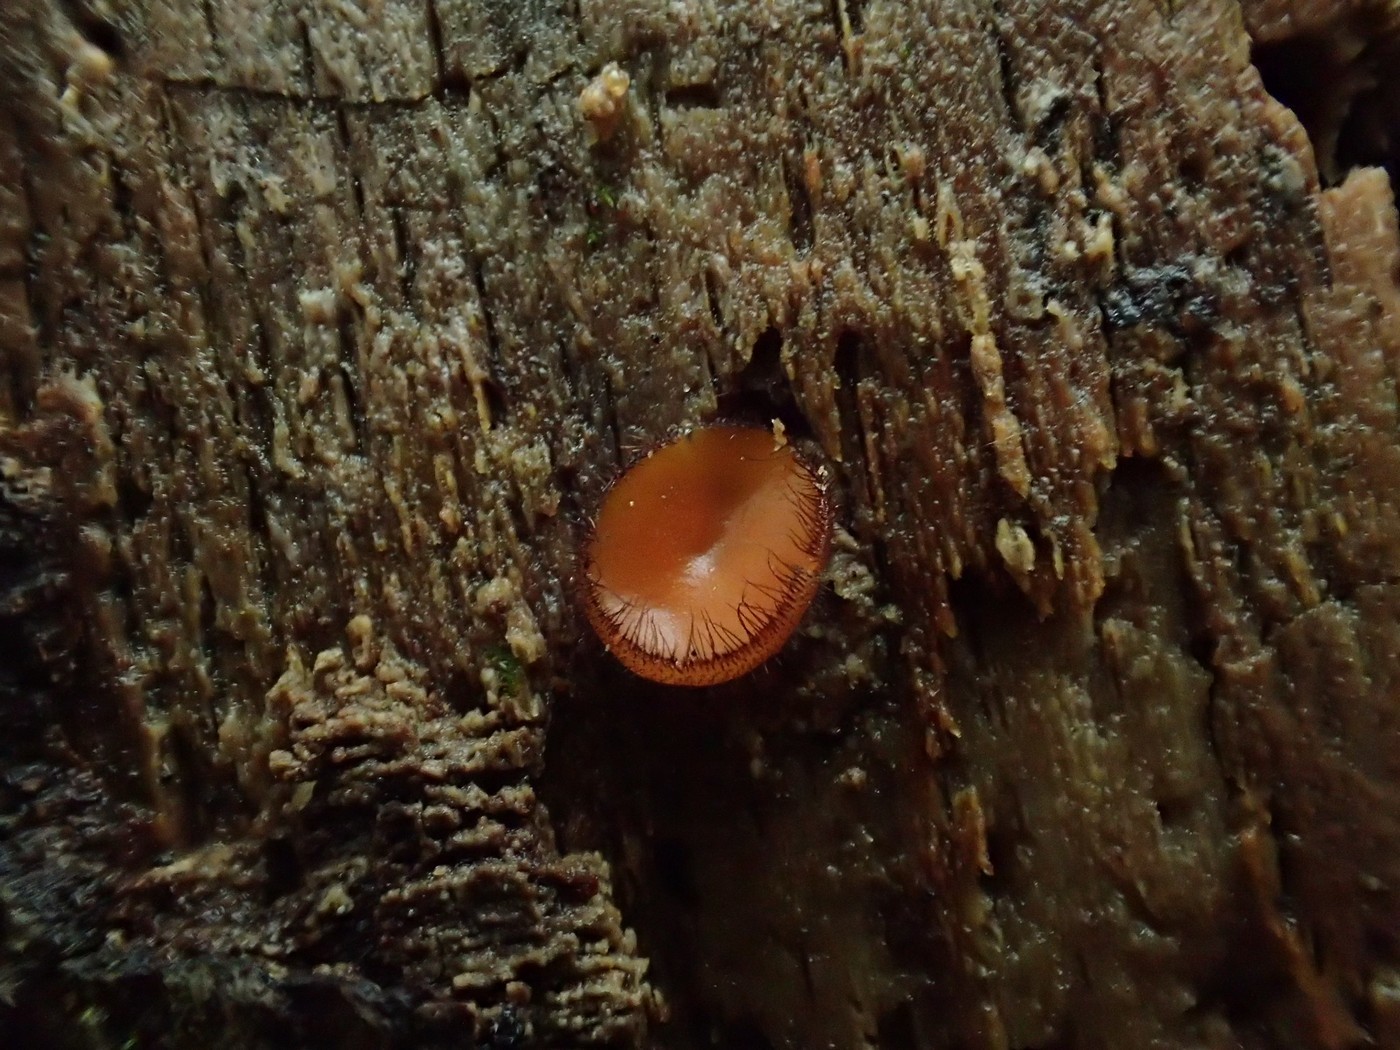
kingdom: Fungi
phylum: Ascomycota
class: Pezizomycetes
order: Pezizales
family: Pyronemataceae
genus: Scutellinia
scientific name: Scutellinia scutellata
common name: Common eyelash
